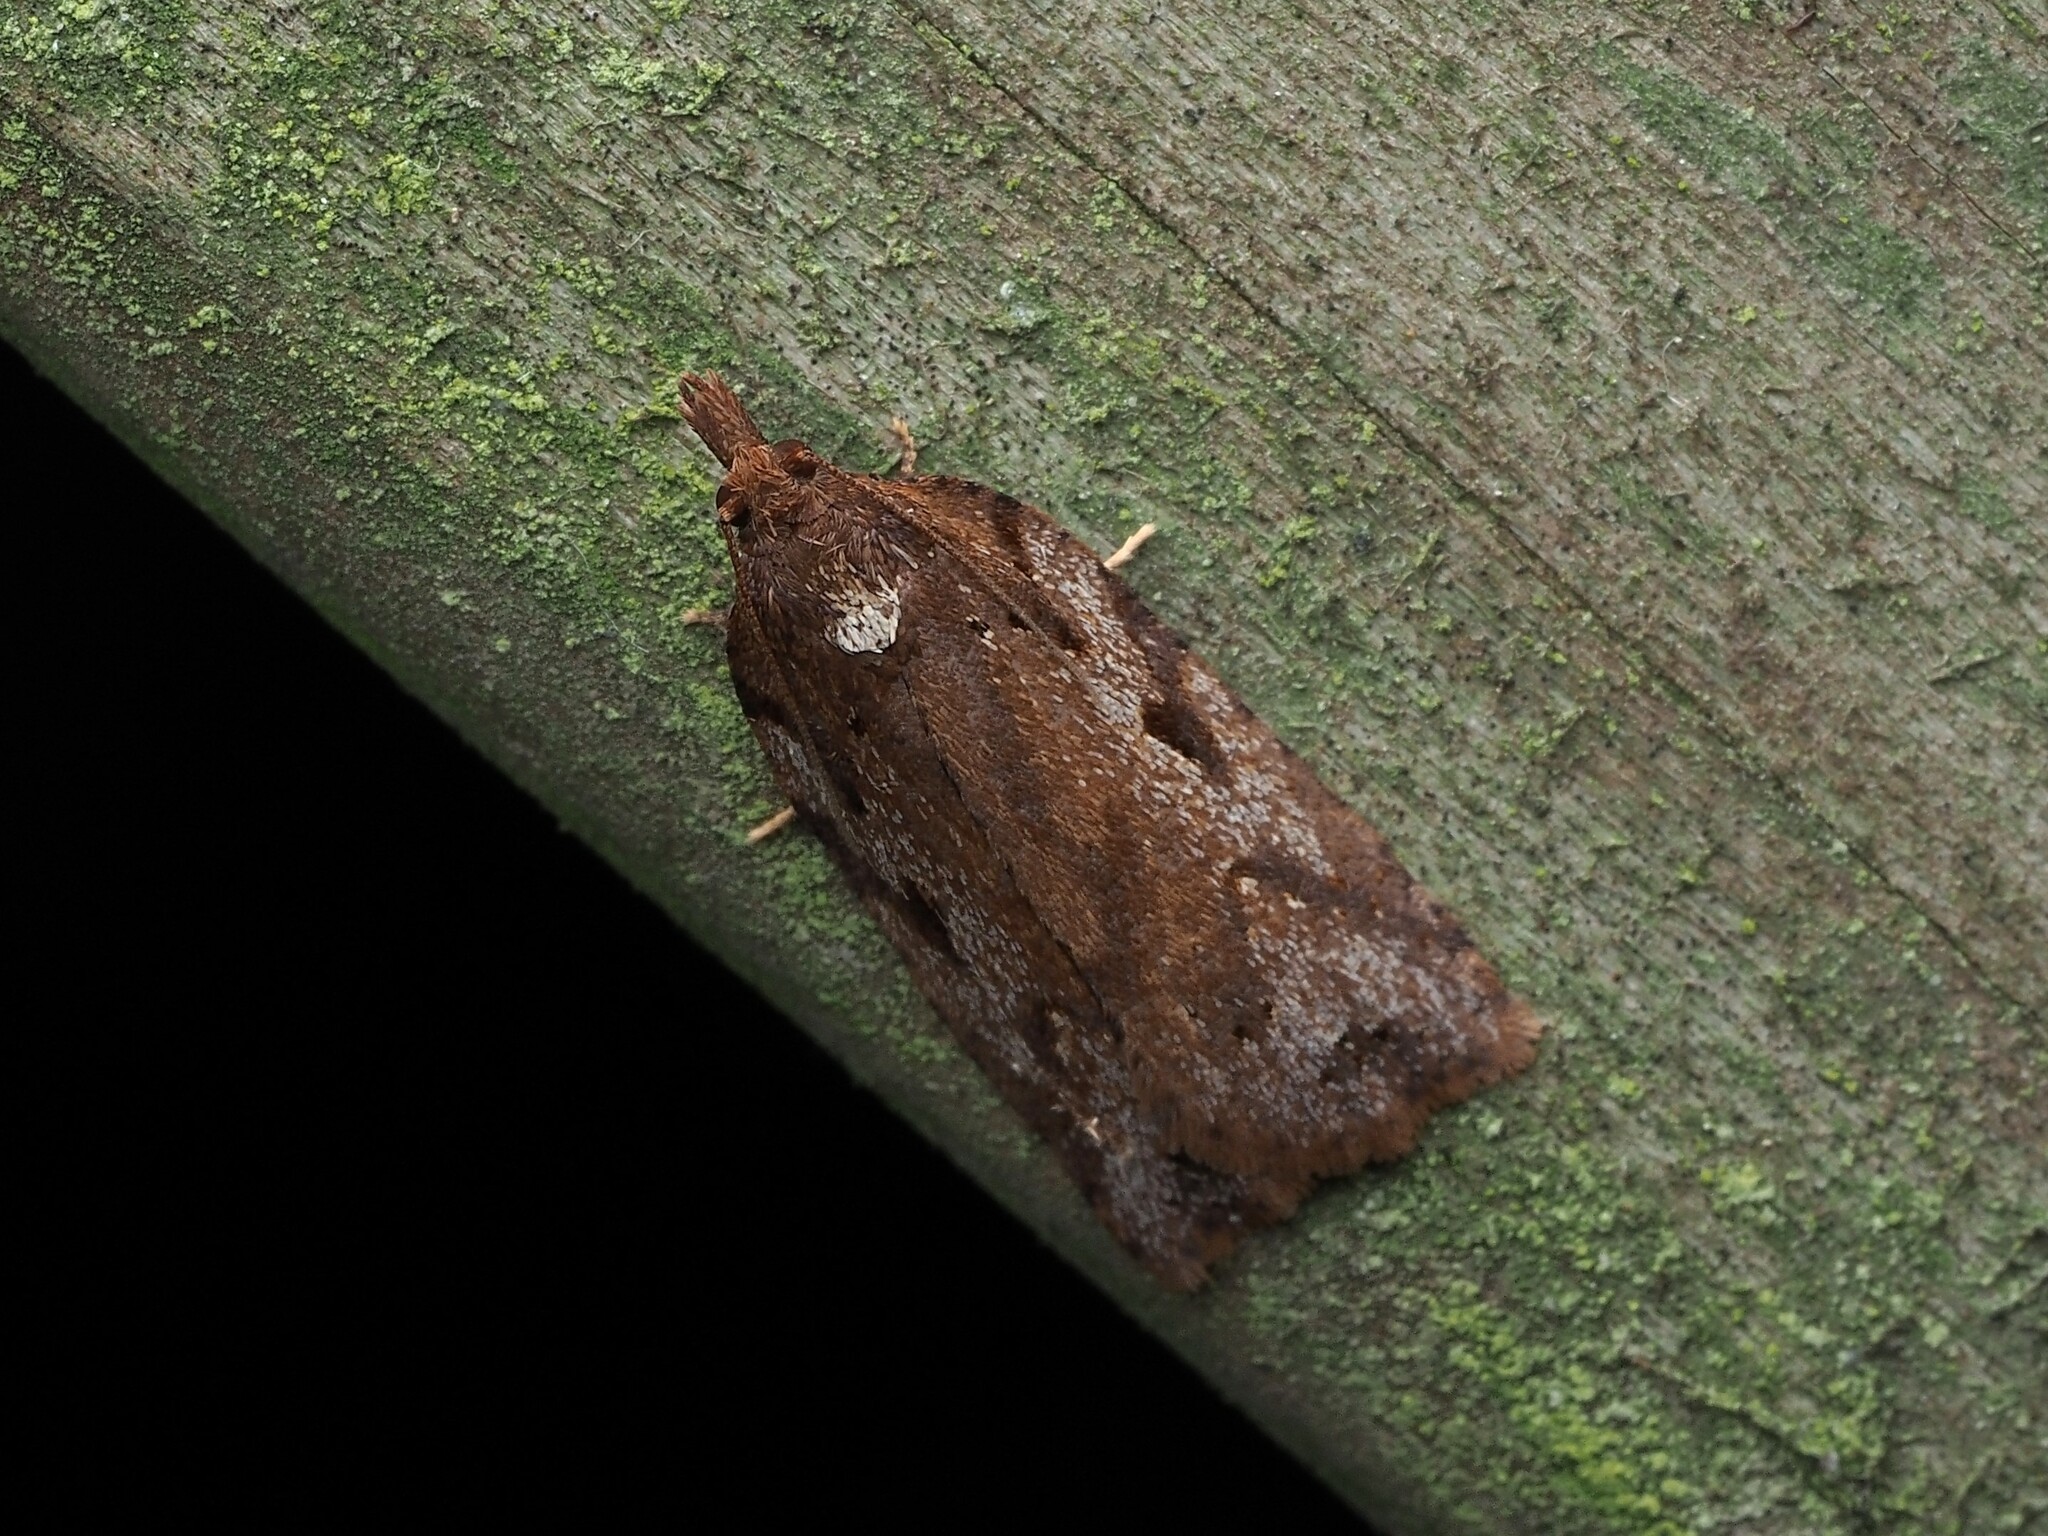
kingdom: Animalia
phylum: Arthropoda
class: Insecta
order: Lepidoptera
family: Tortricidae
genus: Ctenopseustis
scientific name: Ctenopseustis fraterna
